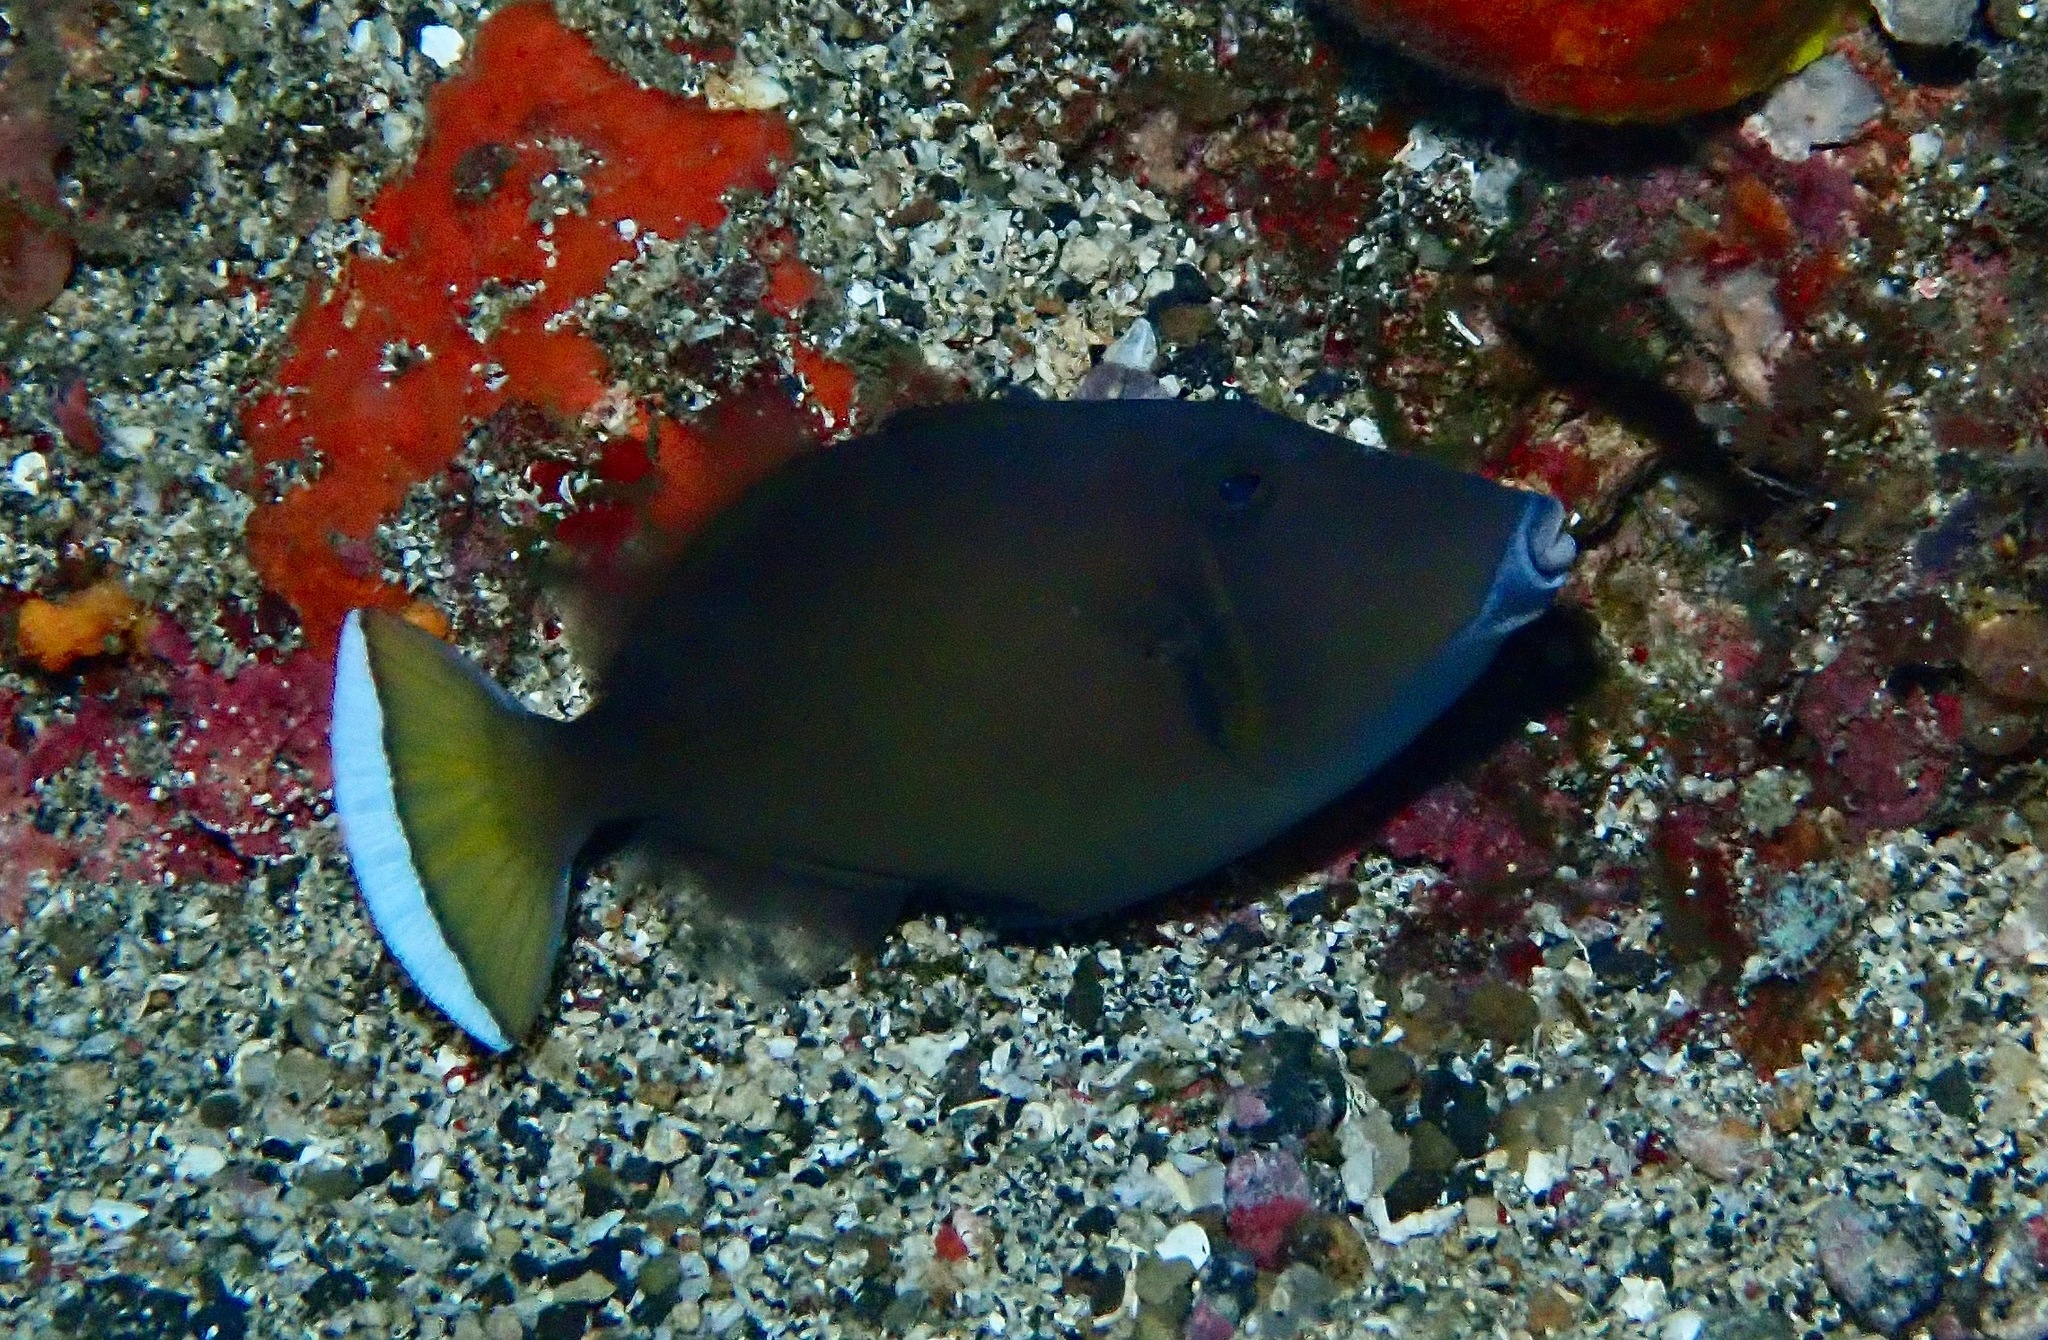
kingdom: Animalia
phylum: Chordata
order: Tetraodontiformes
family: Balistidae
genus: Sufflamen
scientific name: Sufflamen chrysopterum
